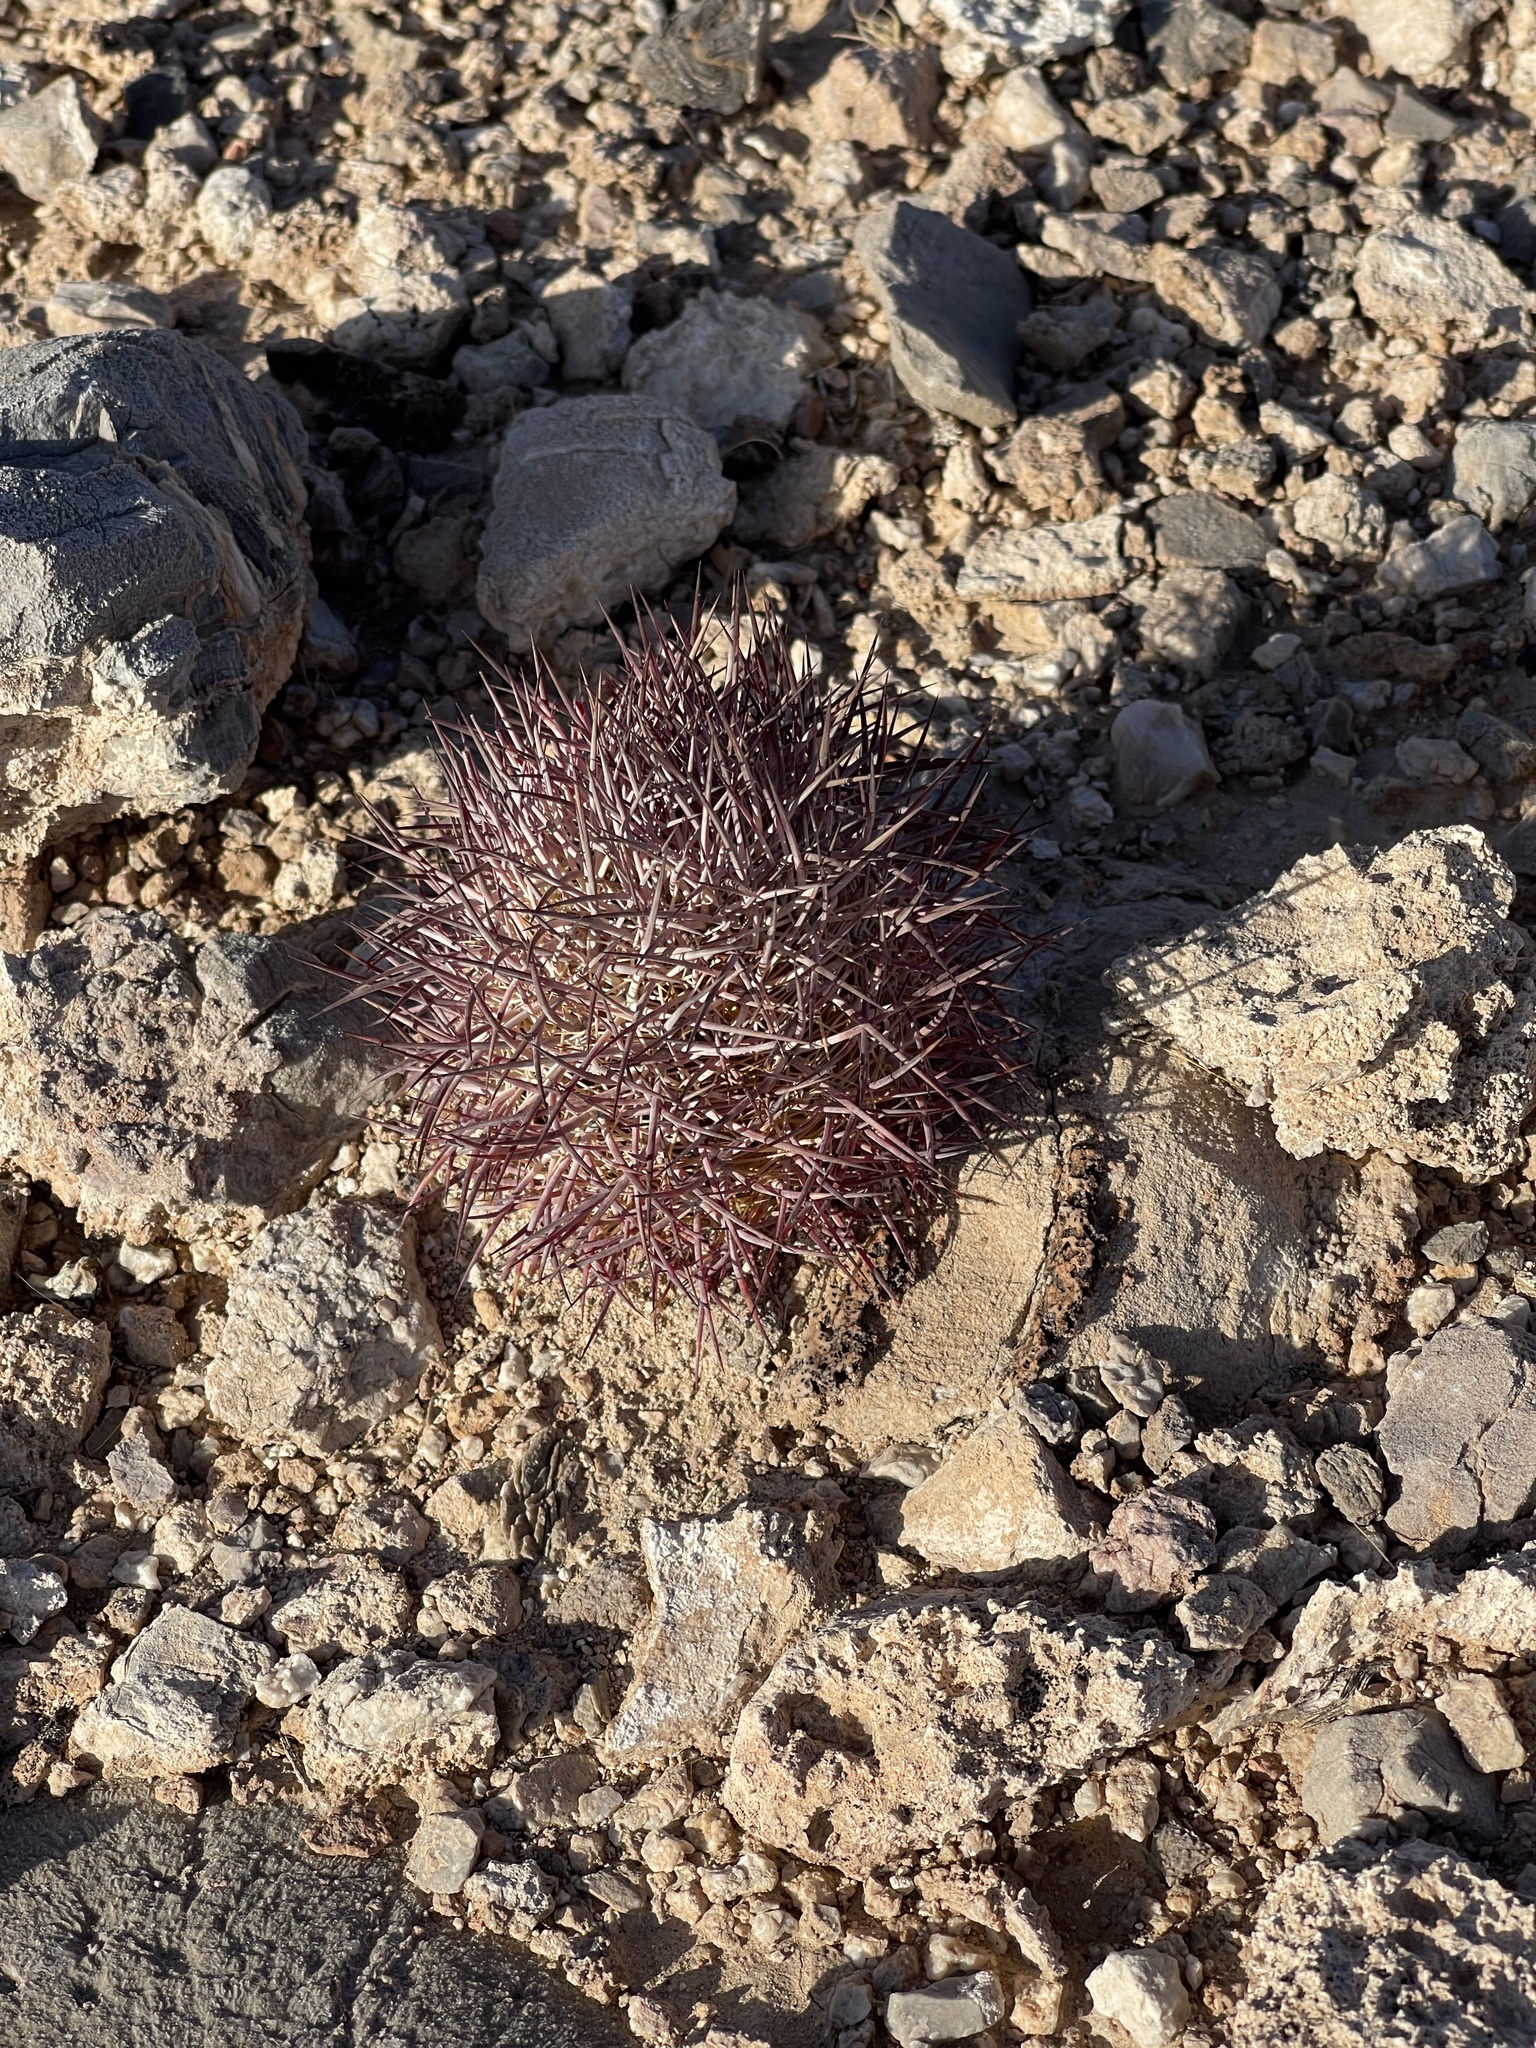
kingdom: Plantae
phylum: Tracheophyta
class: Magnoliopsida
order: Caryophyllales
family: Cactaceae
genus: Sclerocactus
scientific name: Sclerocactus johnsonii
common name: Eight-spine fishhook cactus
